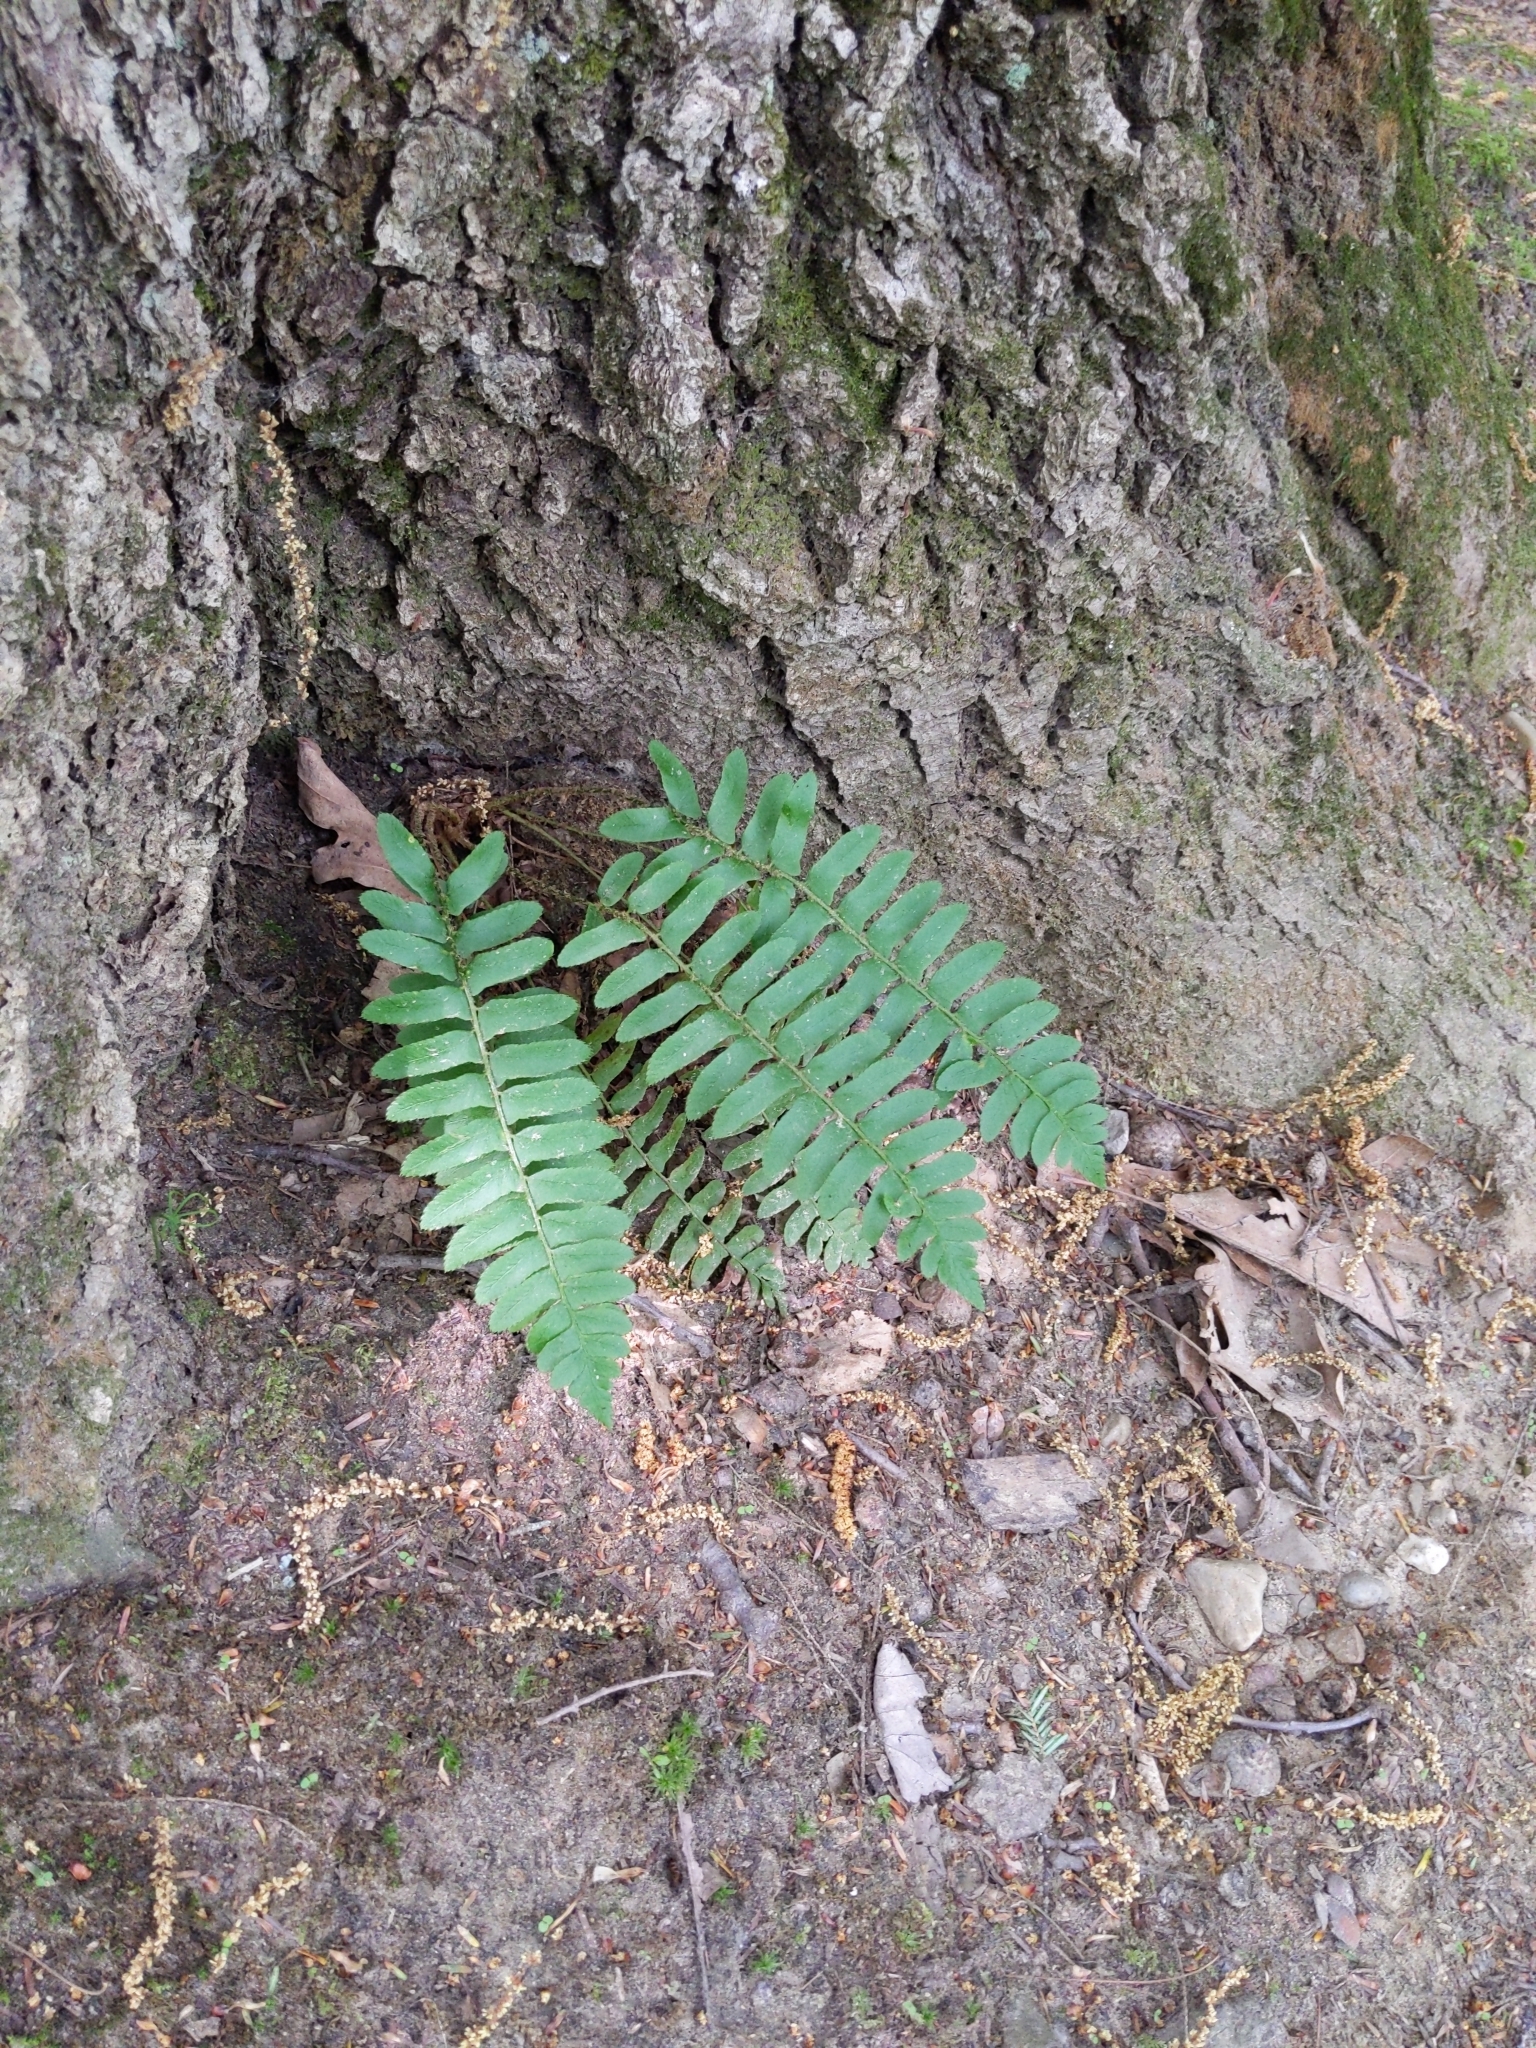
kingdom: Plantae
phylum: Tracheophyta
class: Polypodiopsida
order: Polypodiales
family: Dryopteridaceae
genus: Polystichum
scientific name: Polystichum acrostichoides
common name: Christmas fern
